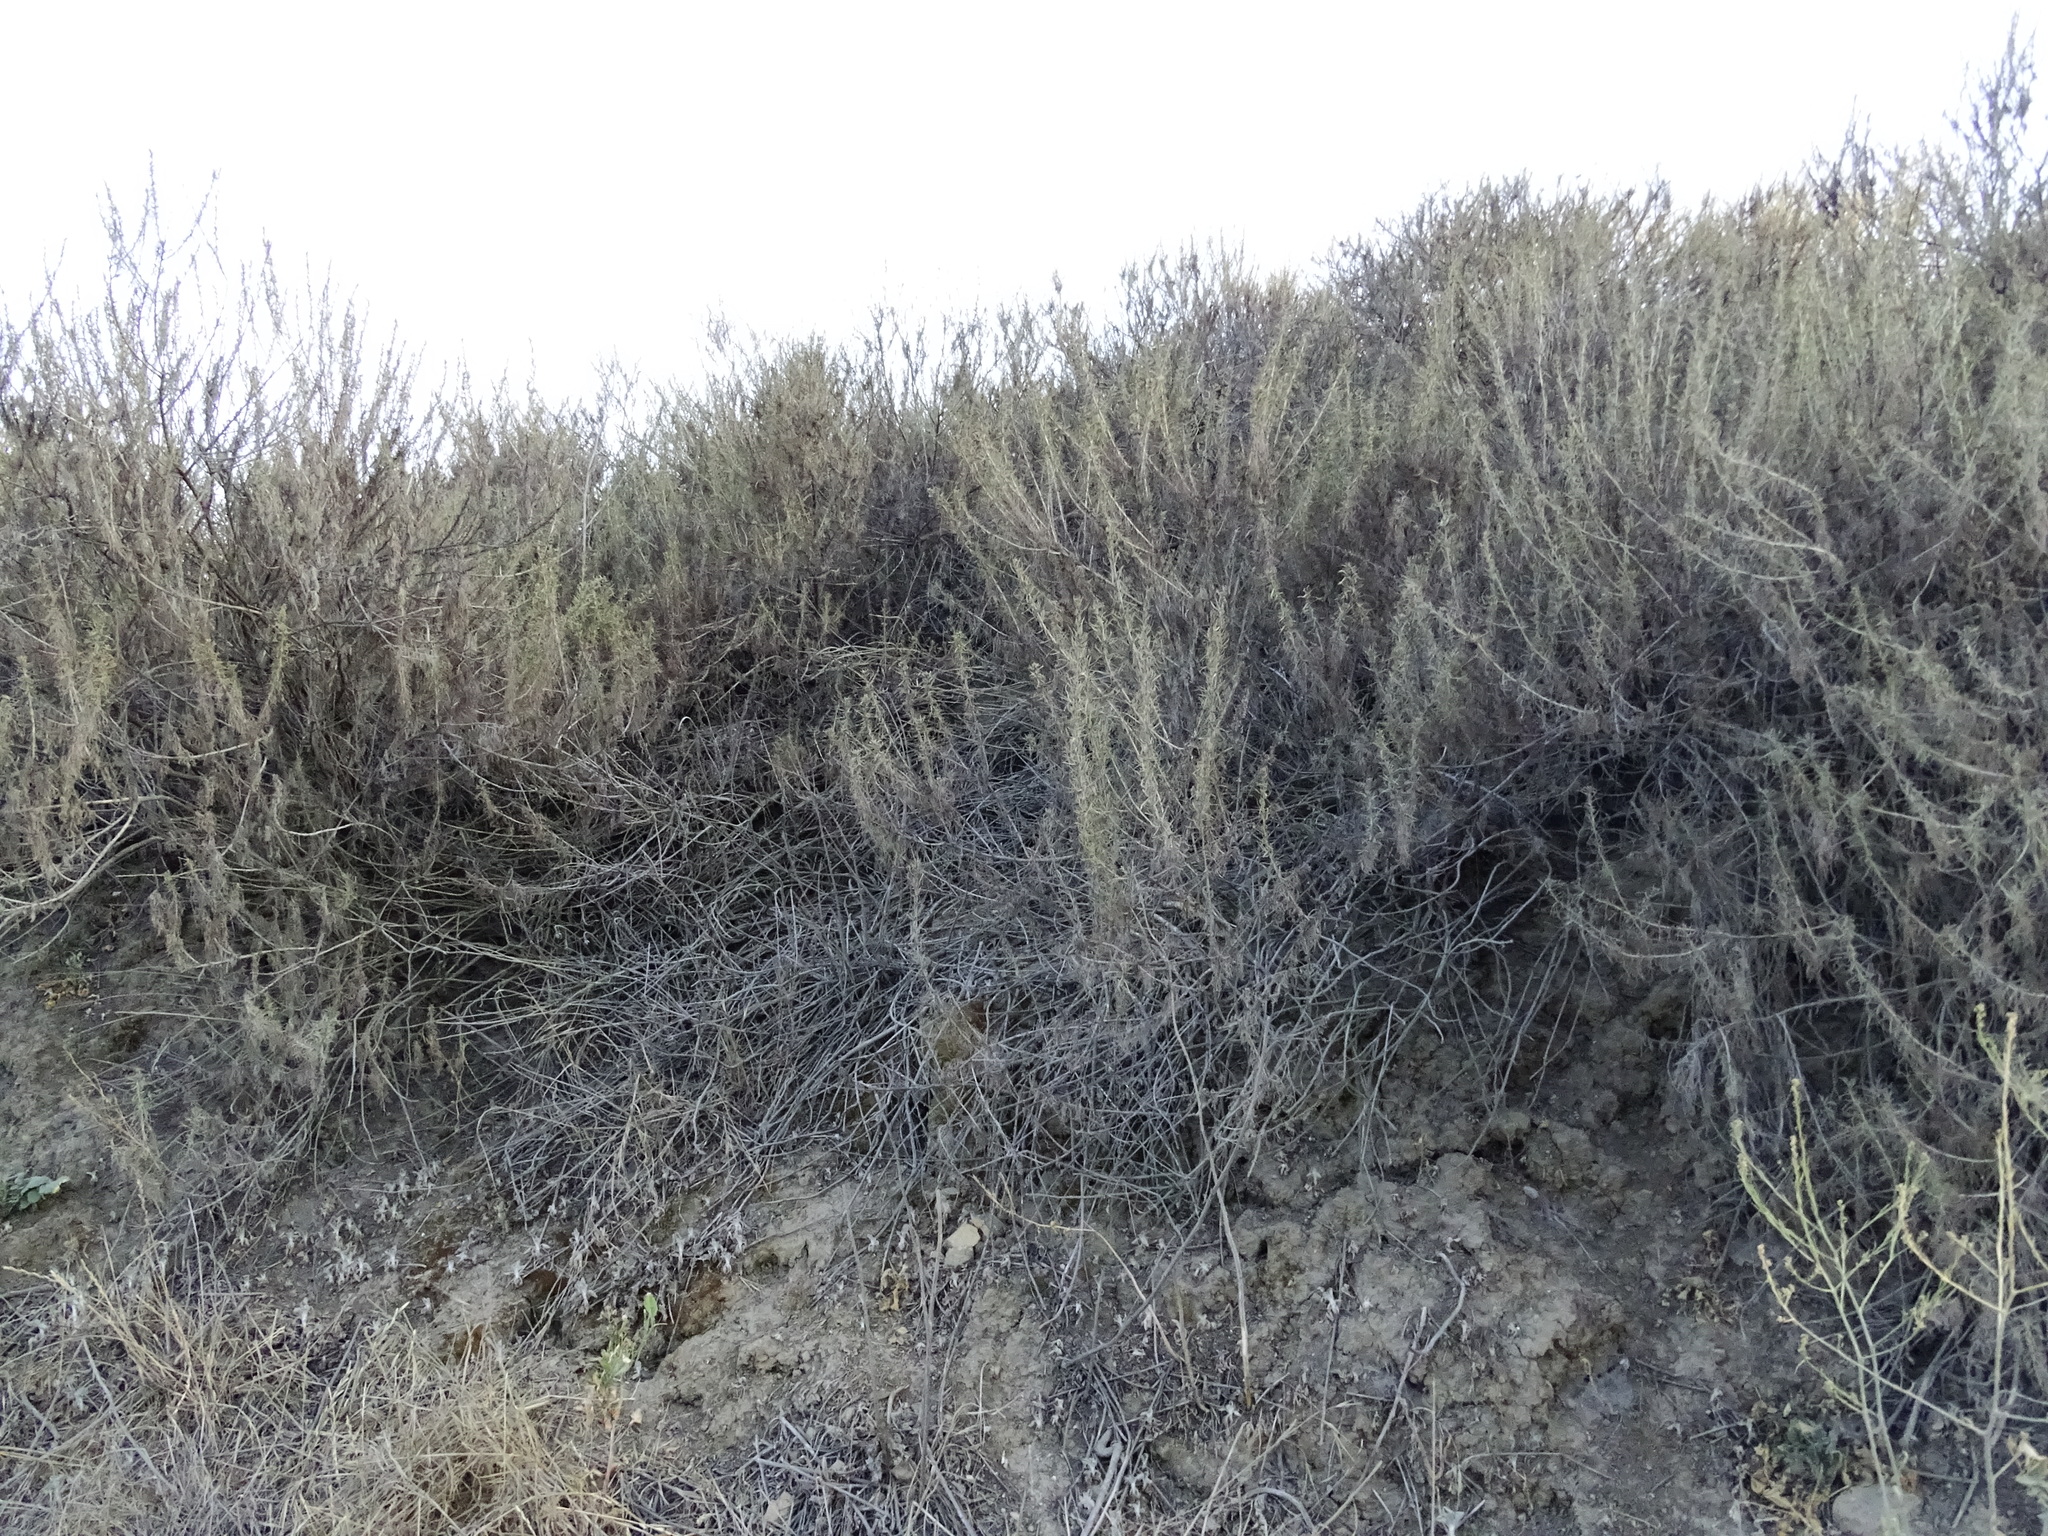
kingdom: Plantae
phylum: Tracheophyta
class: Magnoliopsida
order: Asterales
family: Asteraceae
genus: Artemisia
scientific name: Artemisia californica
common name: California sagebrush
